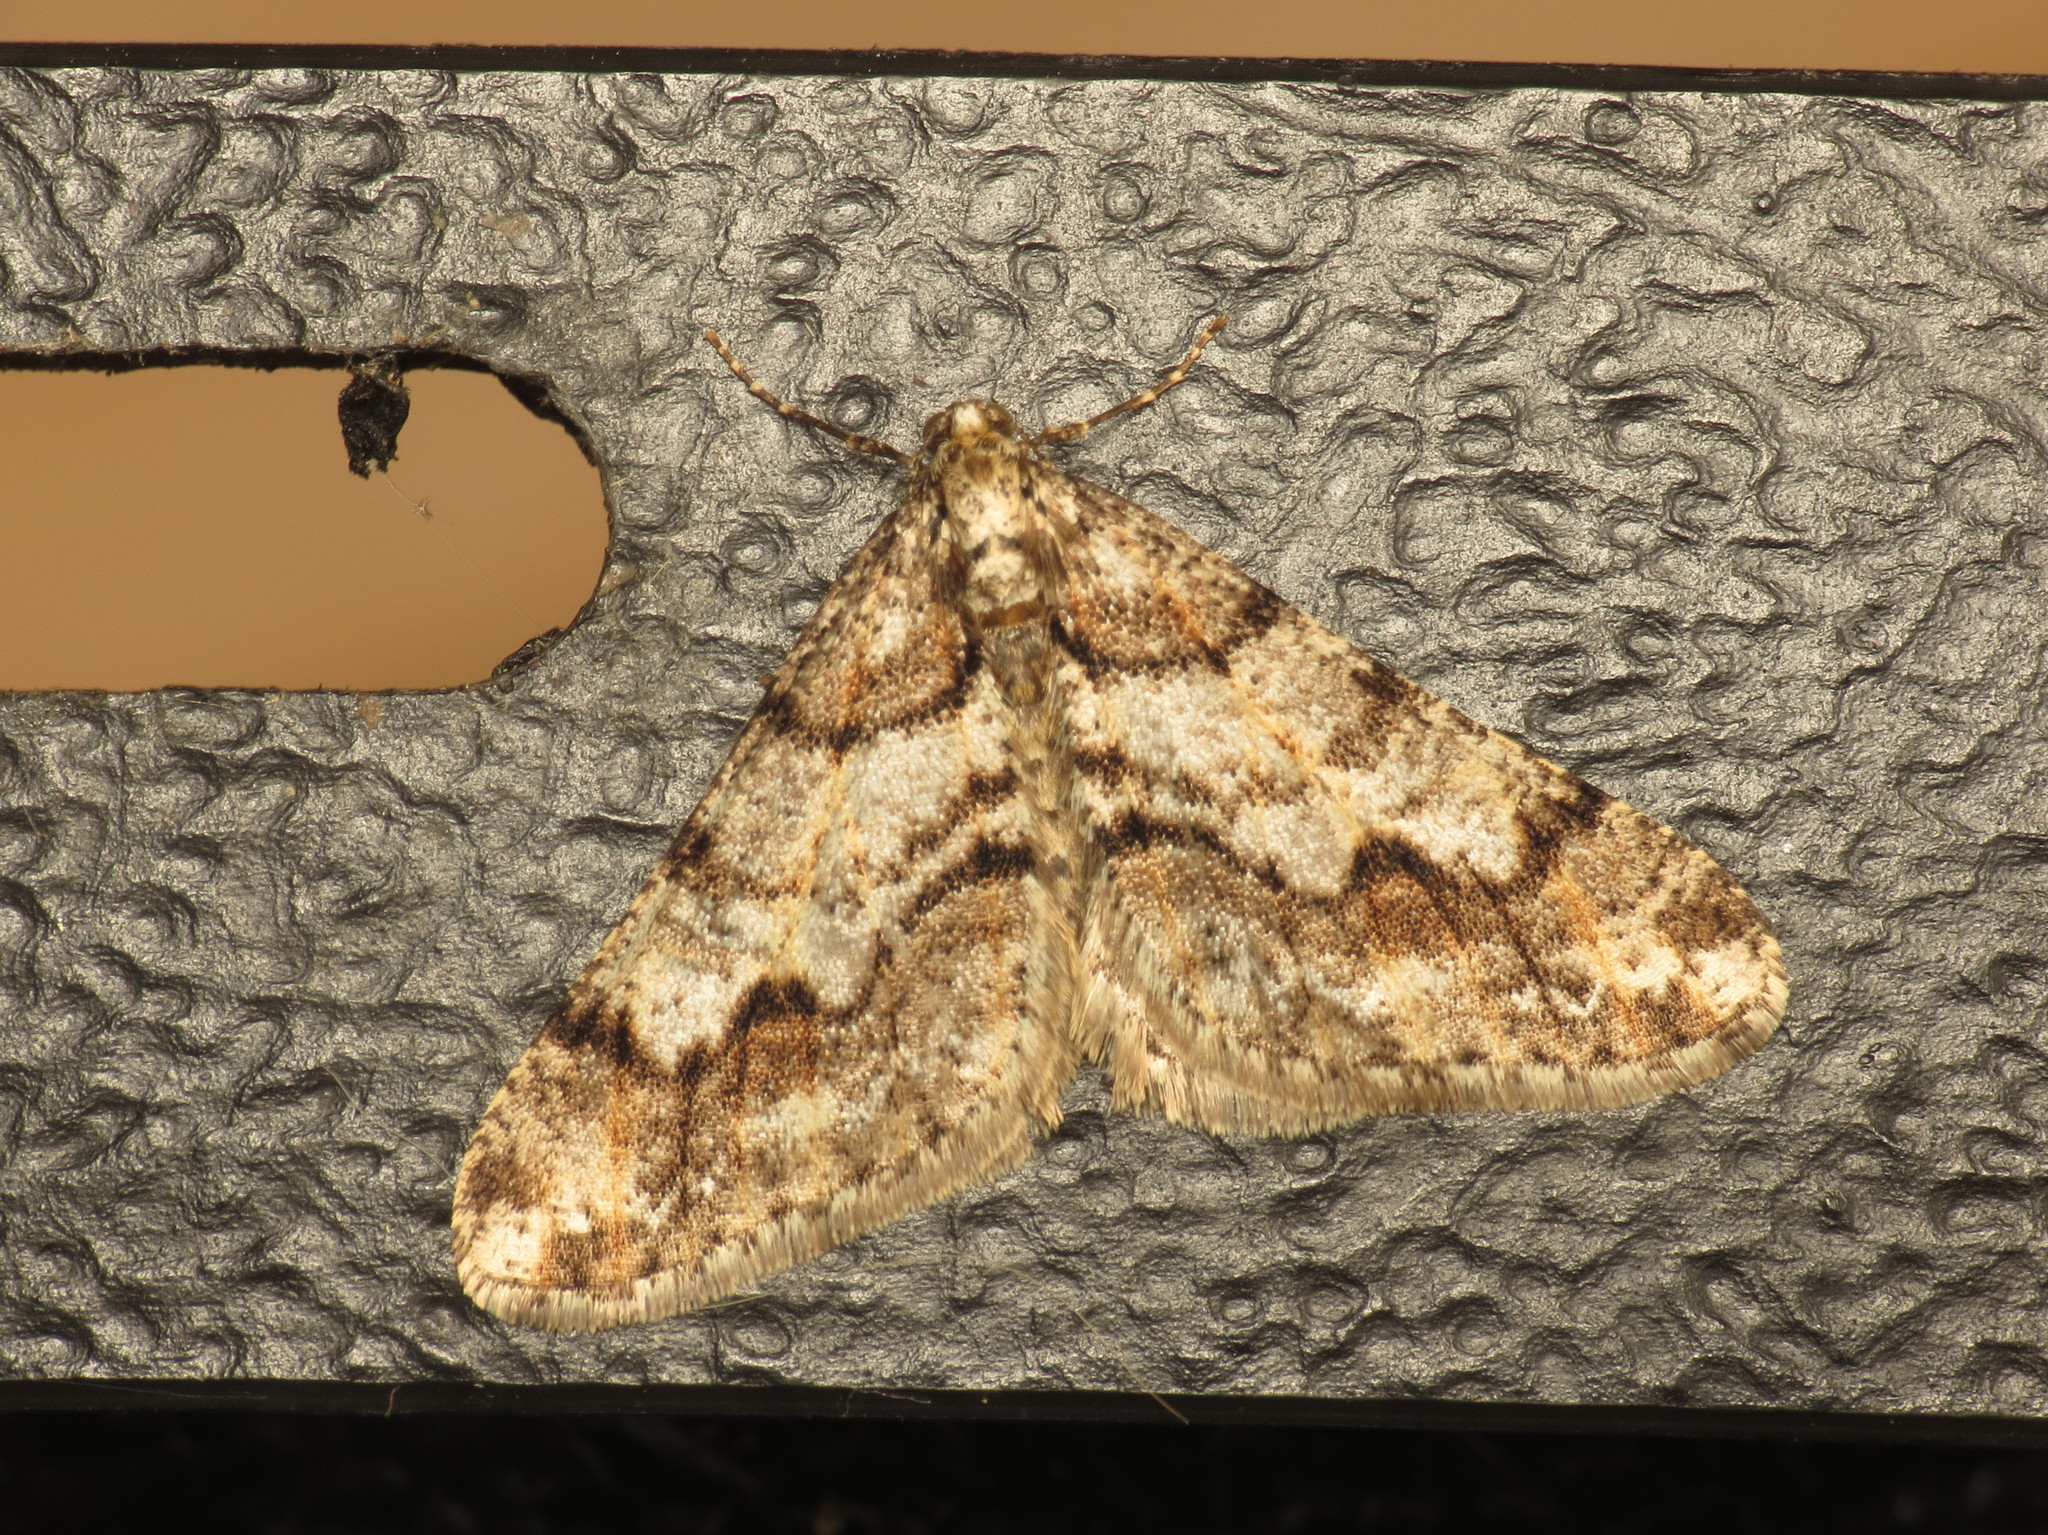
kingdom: Animalia
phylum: Arthropoda
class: Insecta
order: Lepidoptera
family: Geometridae
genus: Agriopis
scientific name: Agriopis leucophaearia
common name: Spring usher
